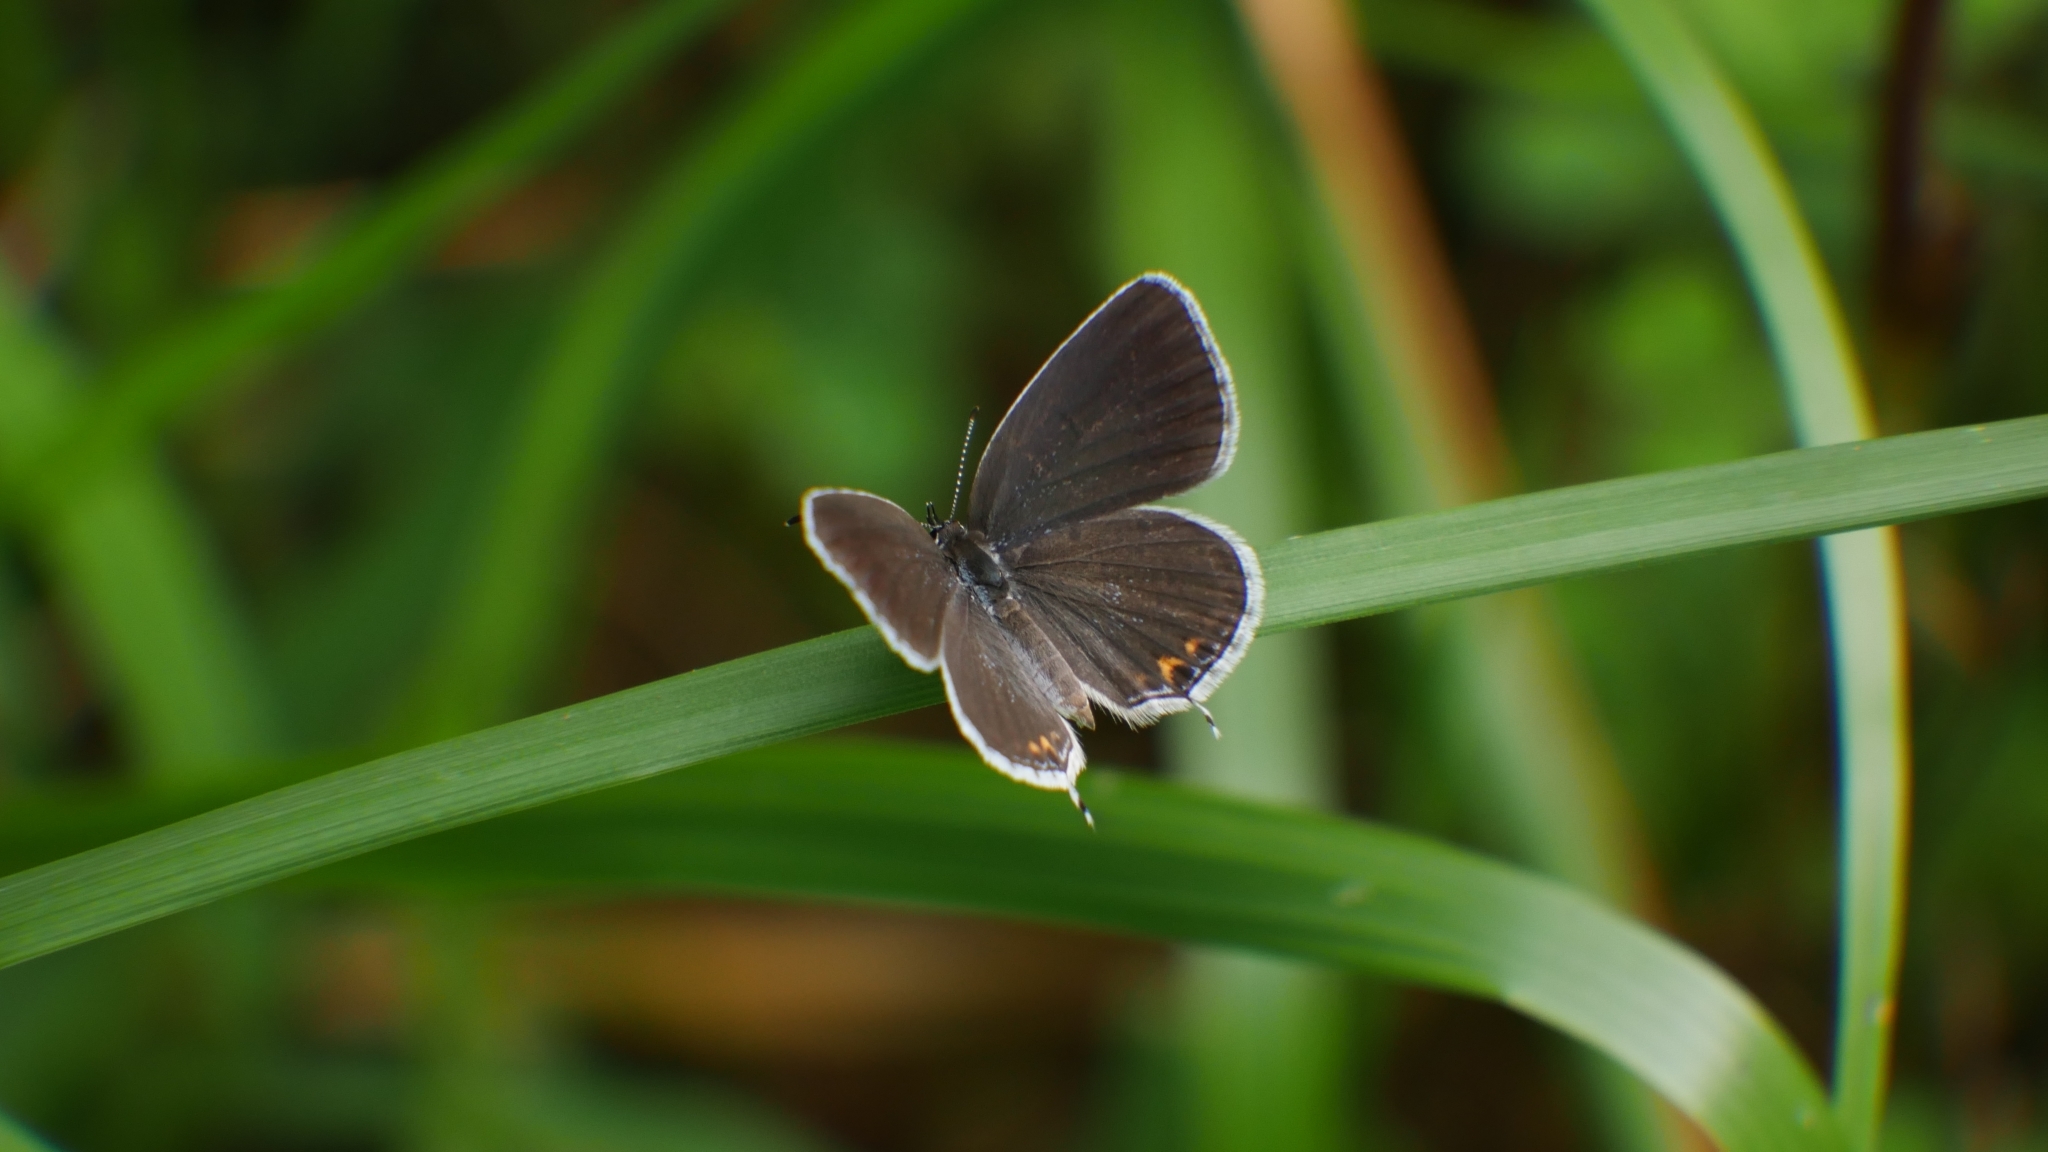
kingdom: Animalia
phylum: Arthropoda
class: Insecta
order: Lepidoptera
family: Lycaenidae
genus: Elkalyce
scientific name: Elkalyce comyntas
